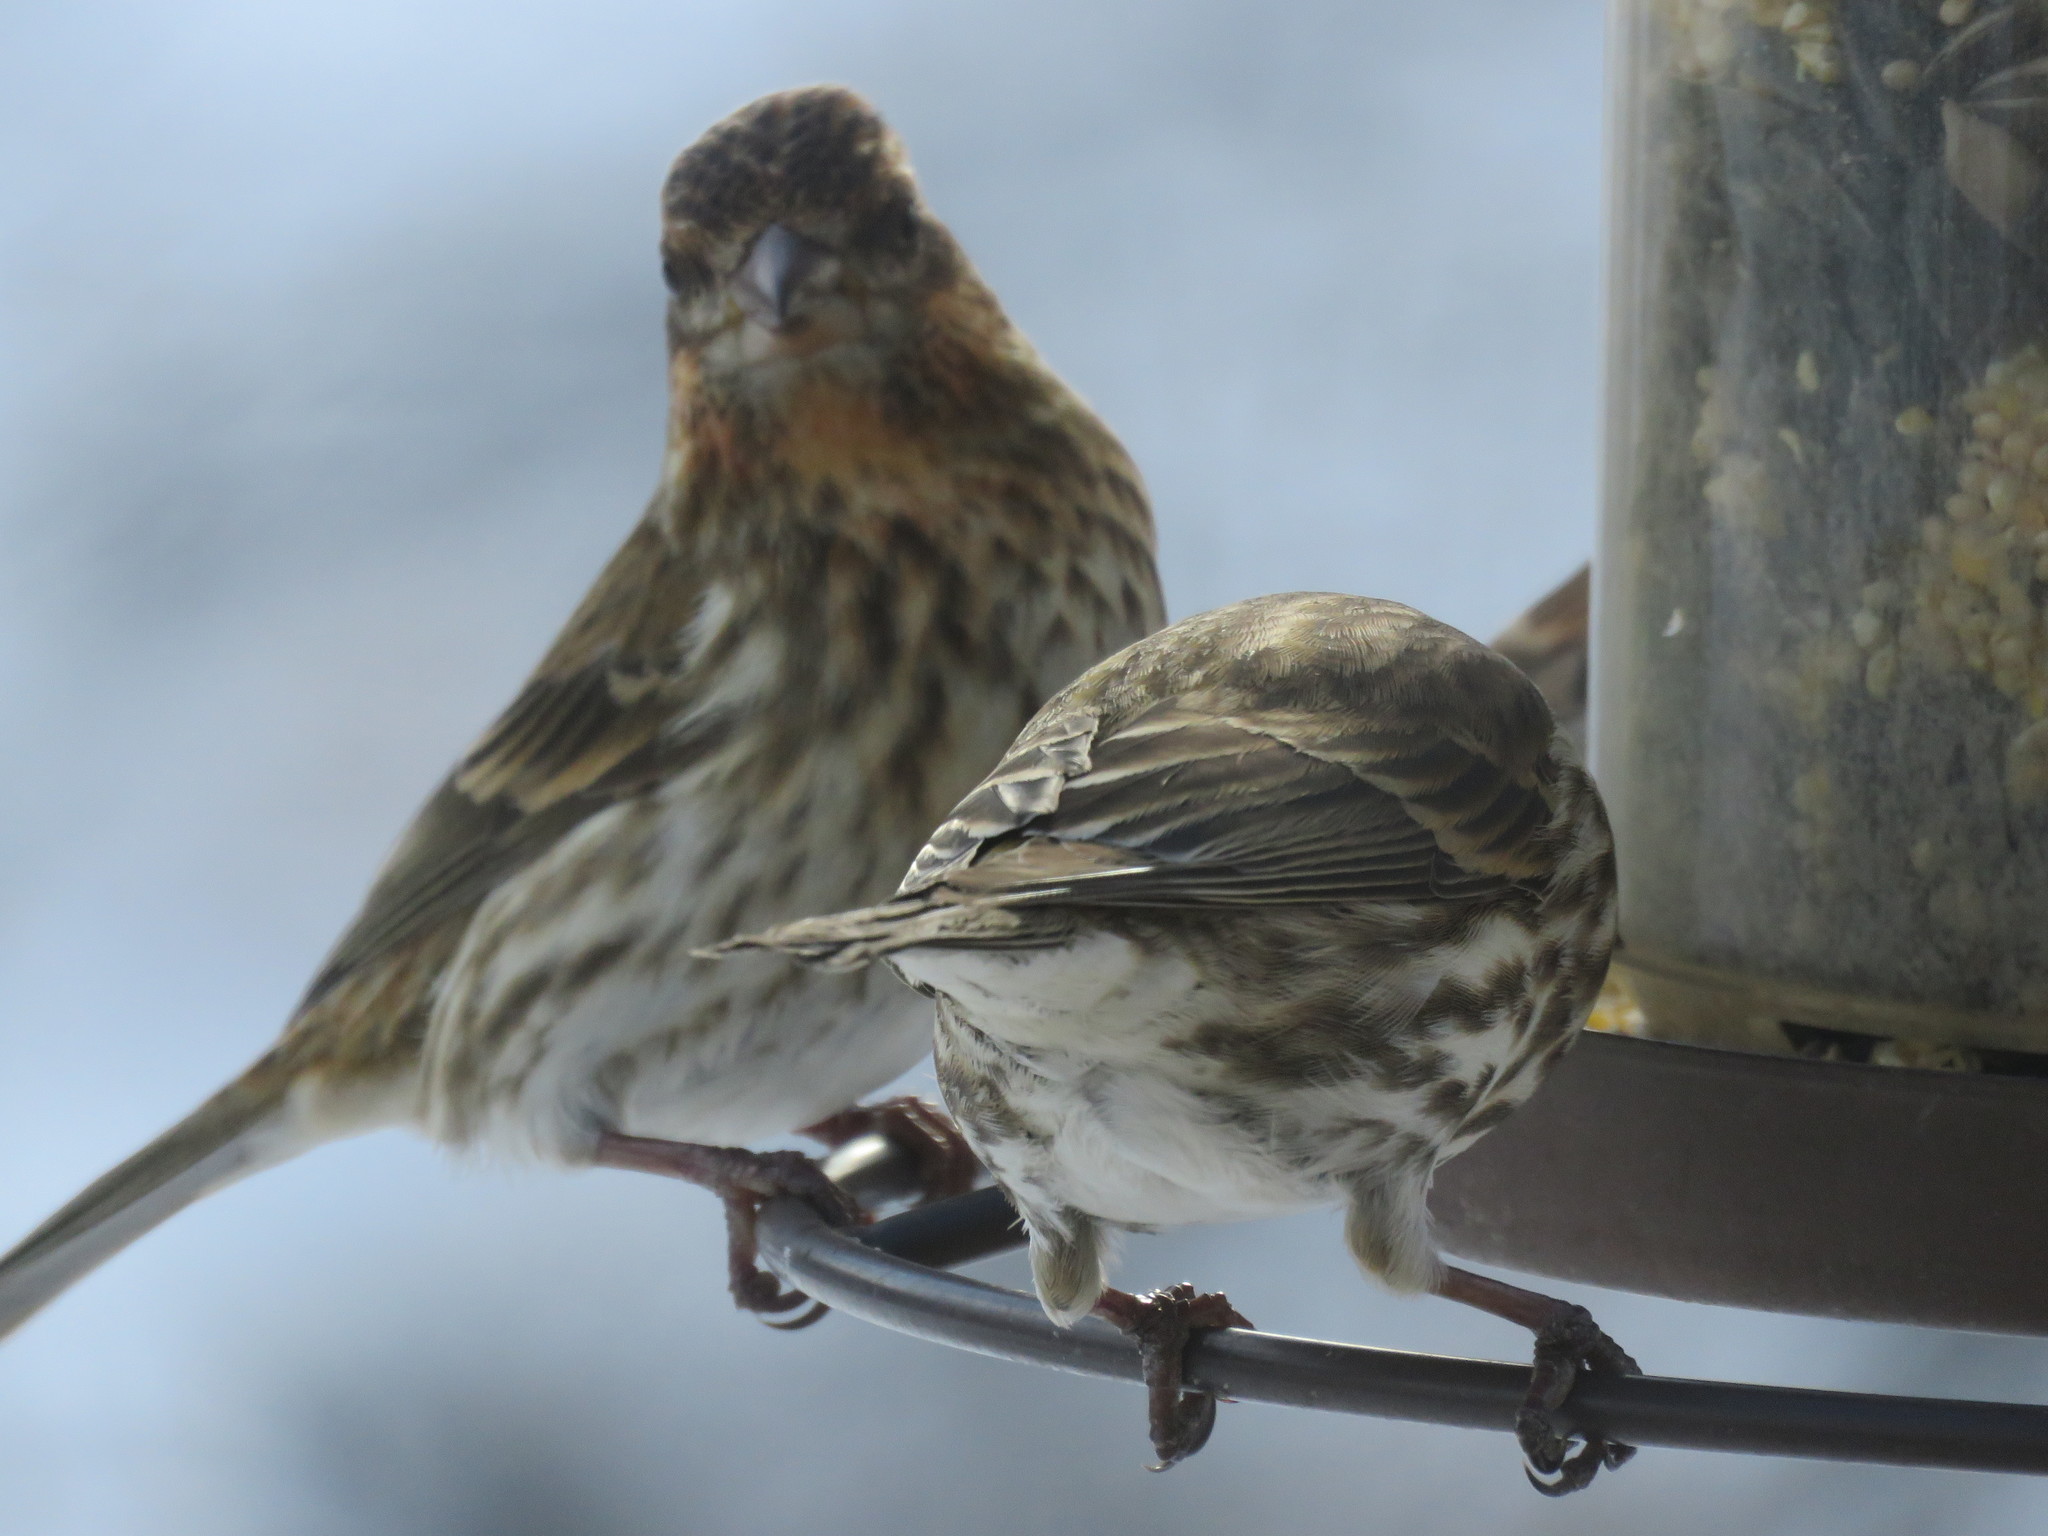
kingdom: Animalia
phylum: Chordata
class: Aves
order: Passeriformes
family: Fringillidae
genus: Haemorhous
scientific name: Haemorhous purpureus
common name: Purple finch
